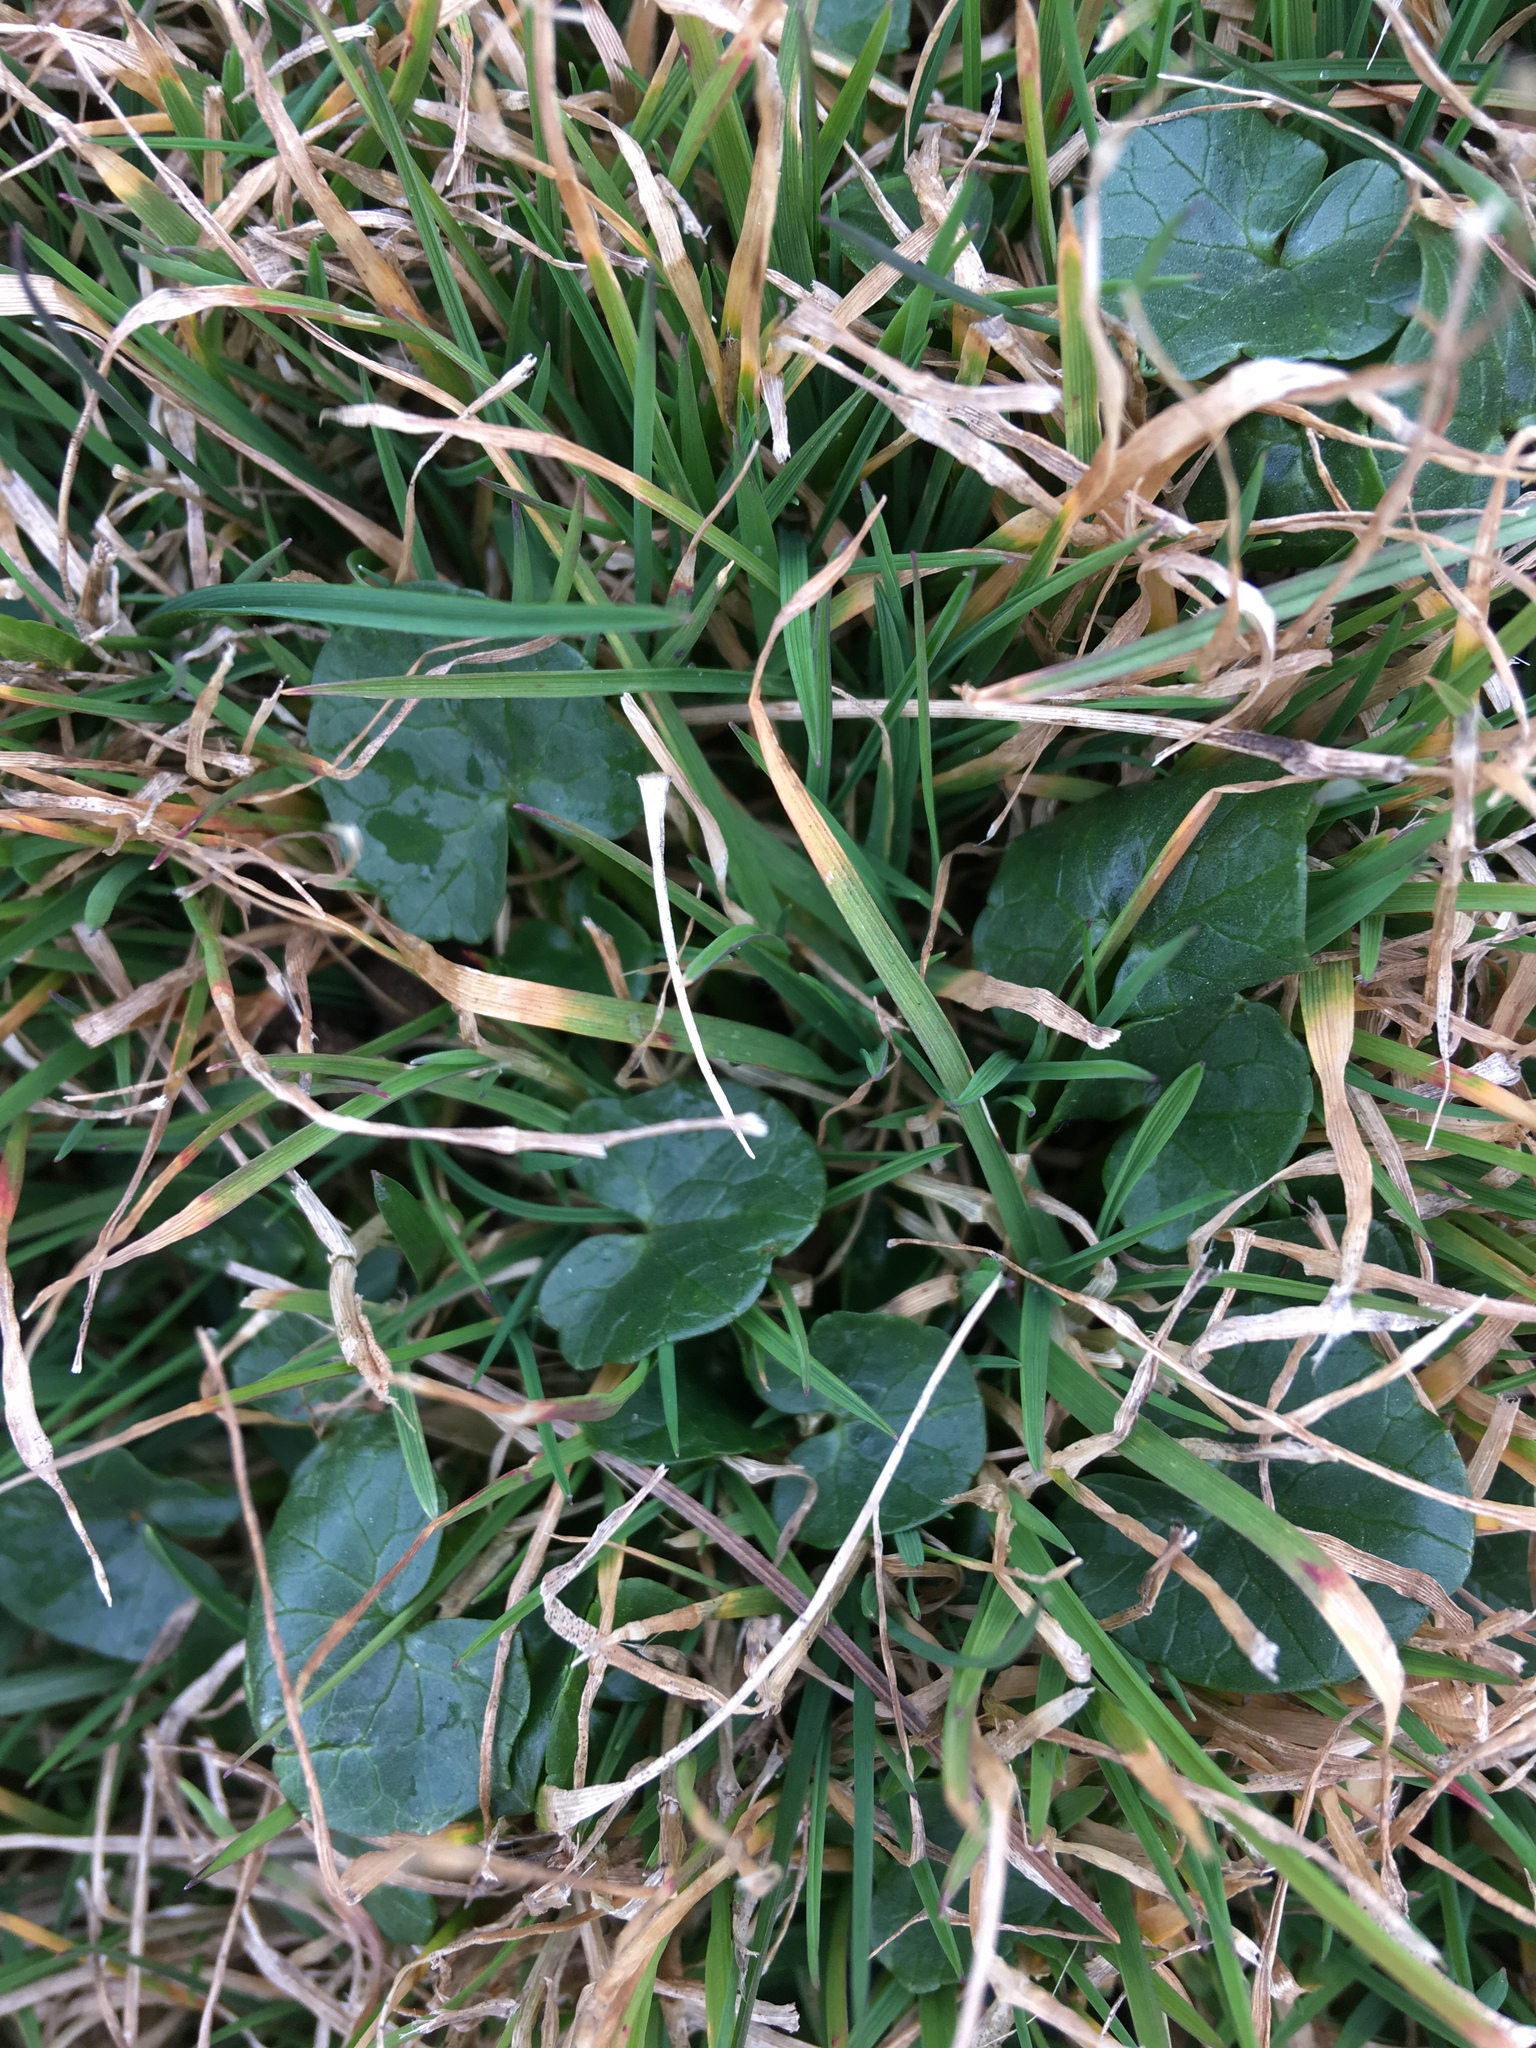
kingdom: Plantae
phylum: Tracheophyta
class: Magnoliopsida
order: Ranunculales
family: Ranunculaceae
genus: Ficaria
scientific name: Ficaria verna
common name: Lesser celandine
